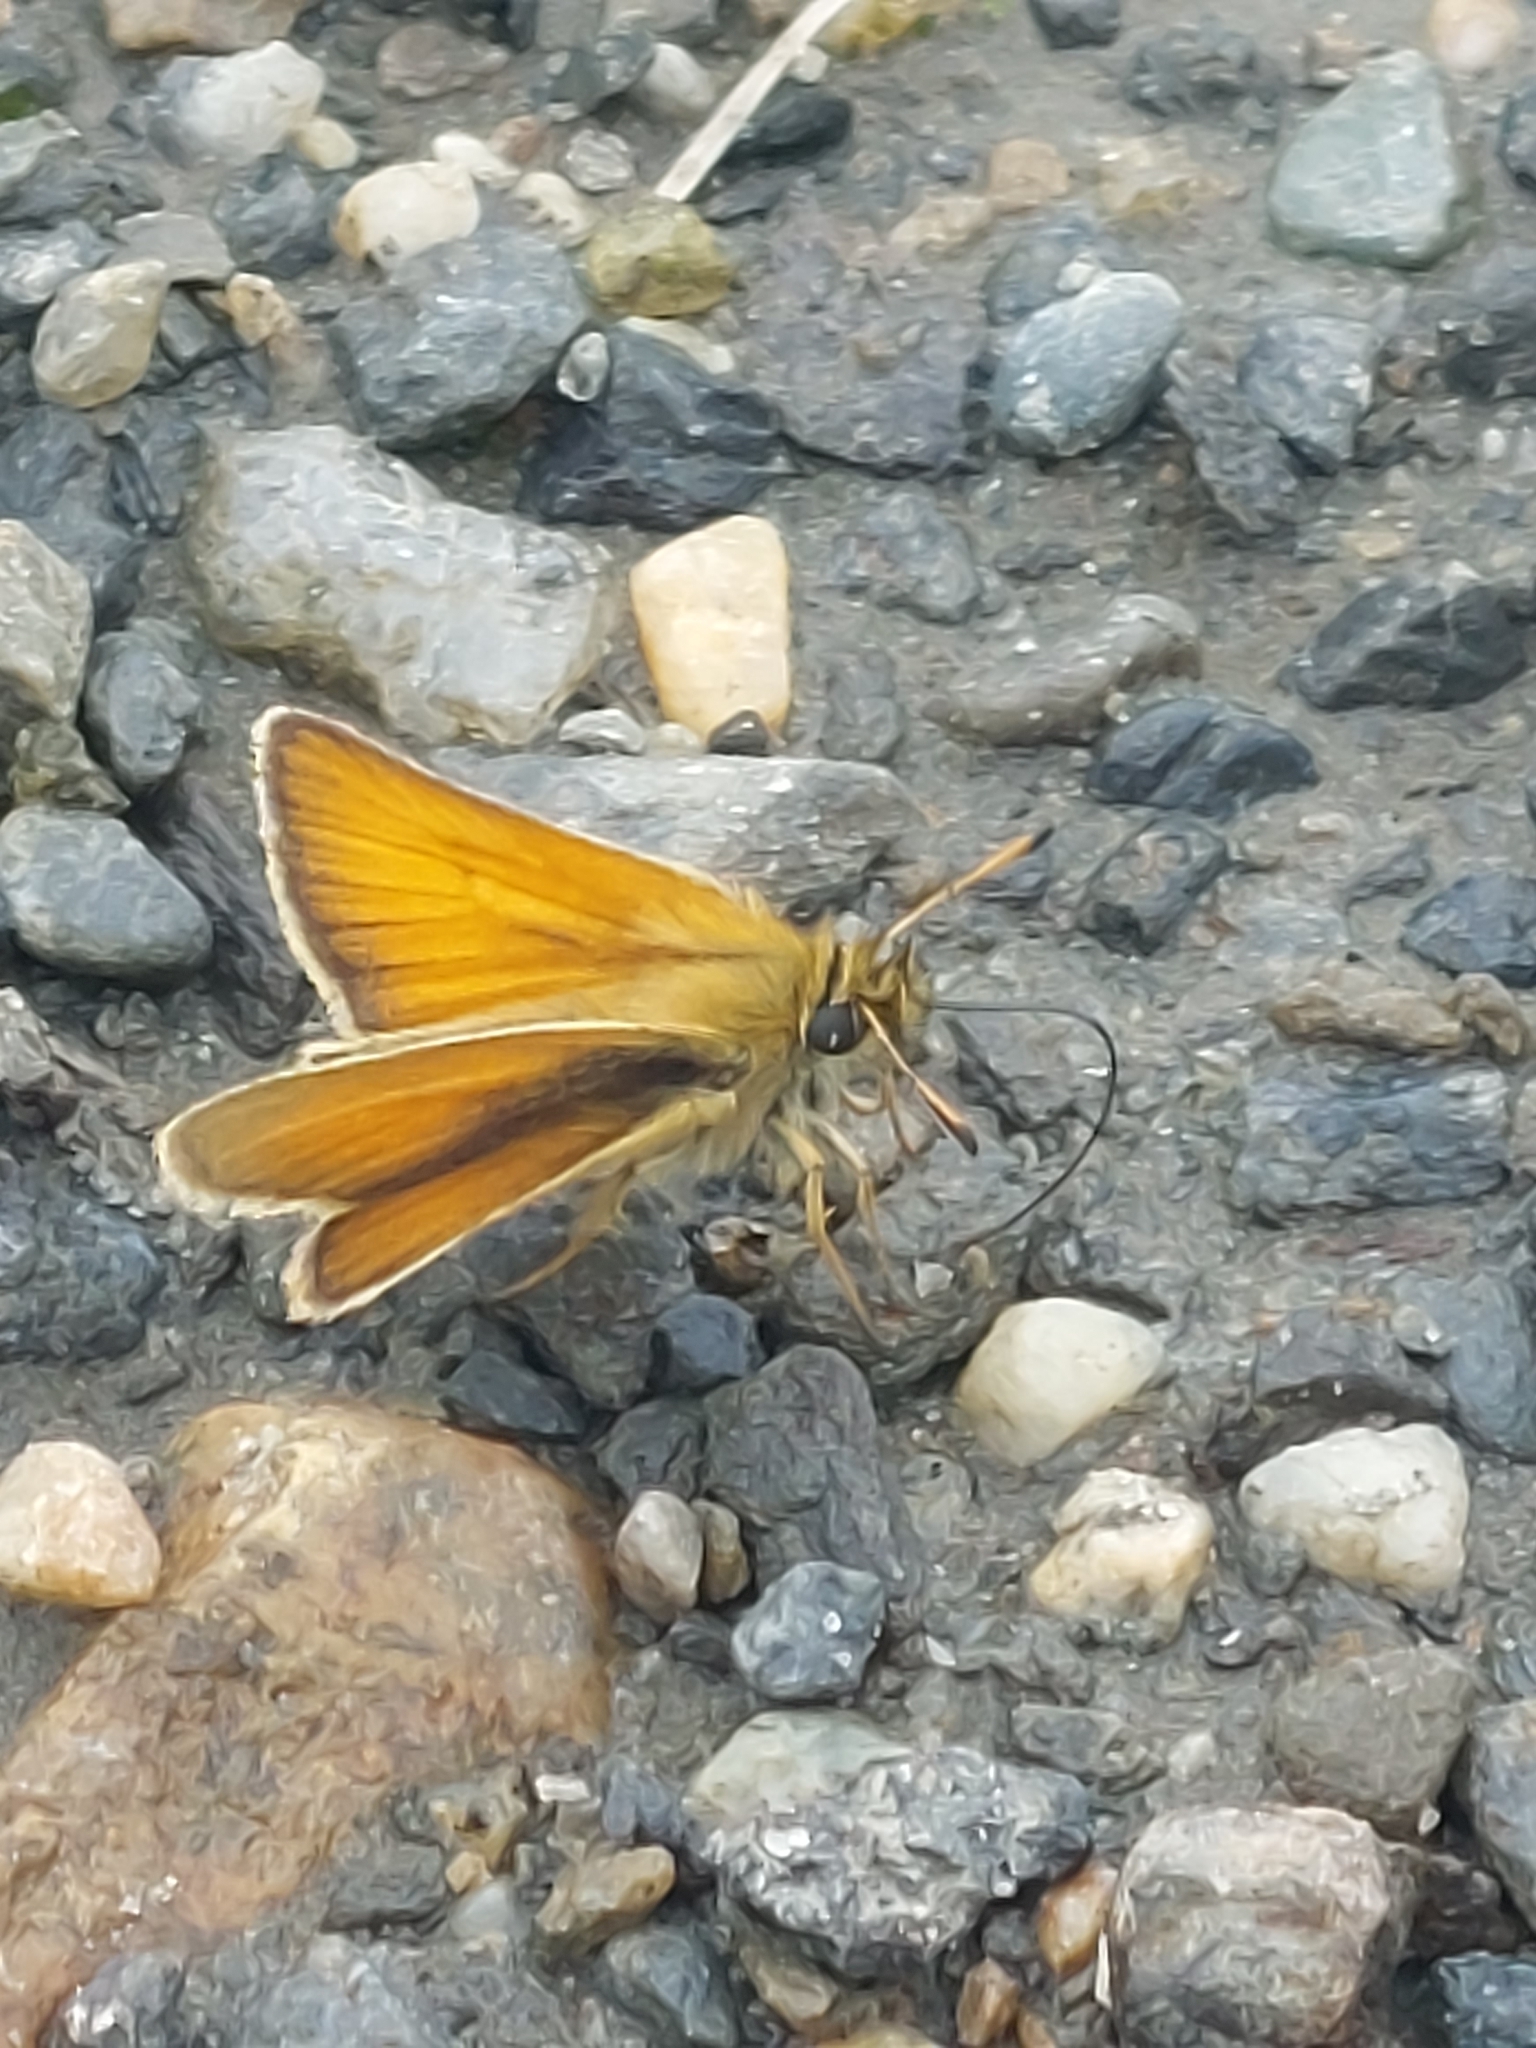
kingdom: Animalia
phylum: Arthropoda
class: Insecta
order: Lepidoptera
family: Hesperiidae
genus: Thymelicus
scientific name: Thymelicus lineola
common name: Essex skipper
